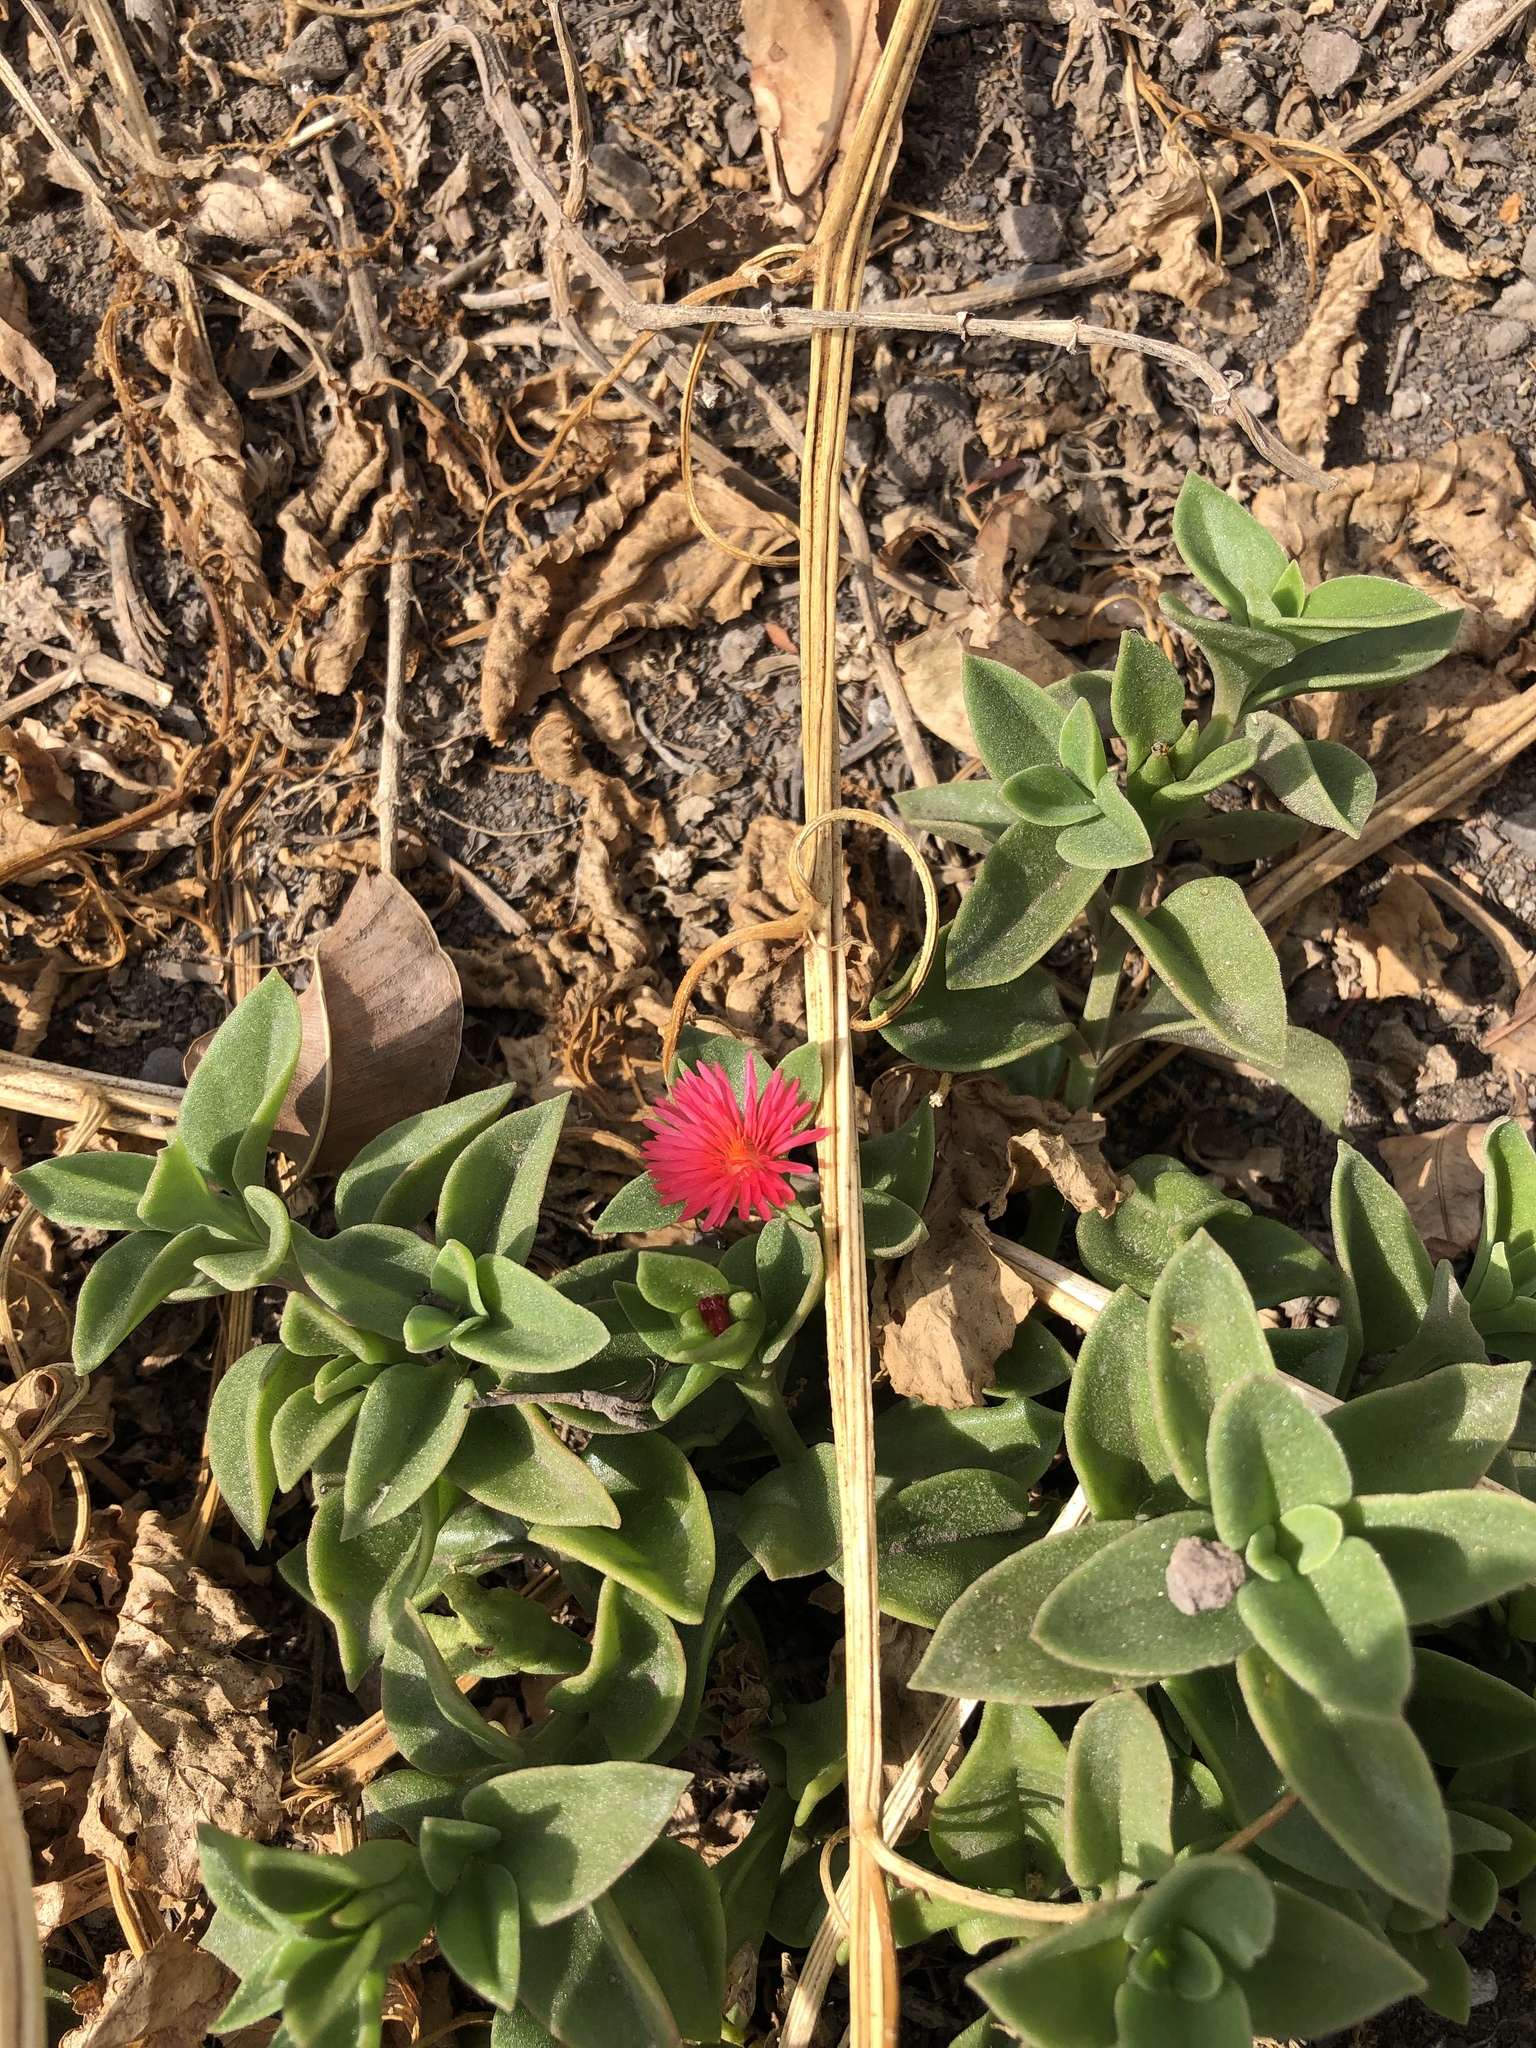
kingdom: Plantae
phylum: Tracheophyta
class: Magnoliopsida
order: Caryophyllales
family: Aizoaceae
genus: Mesembryanthemum
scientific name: Mesembryanthemum cordifolium
